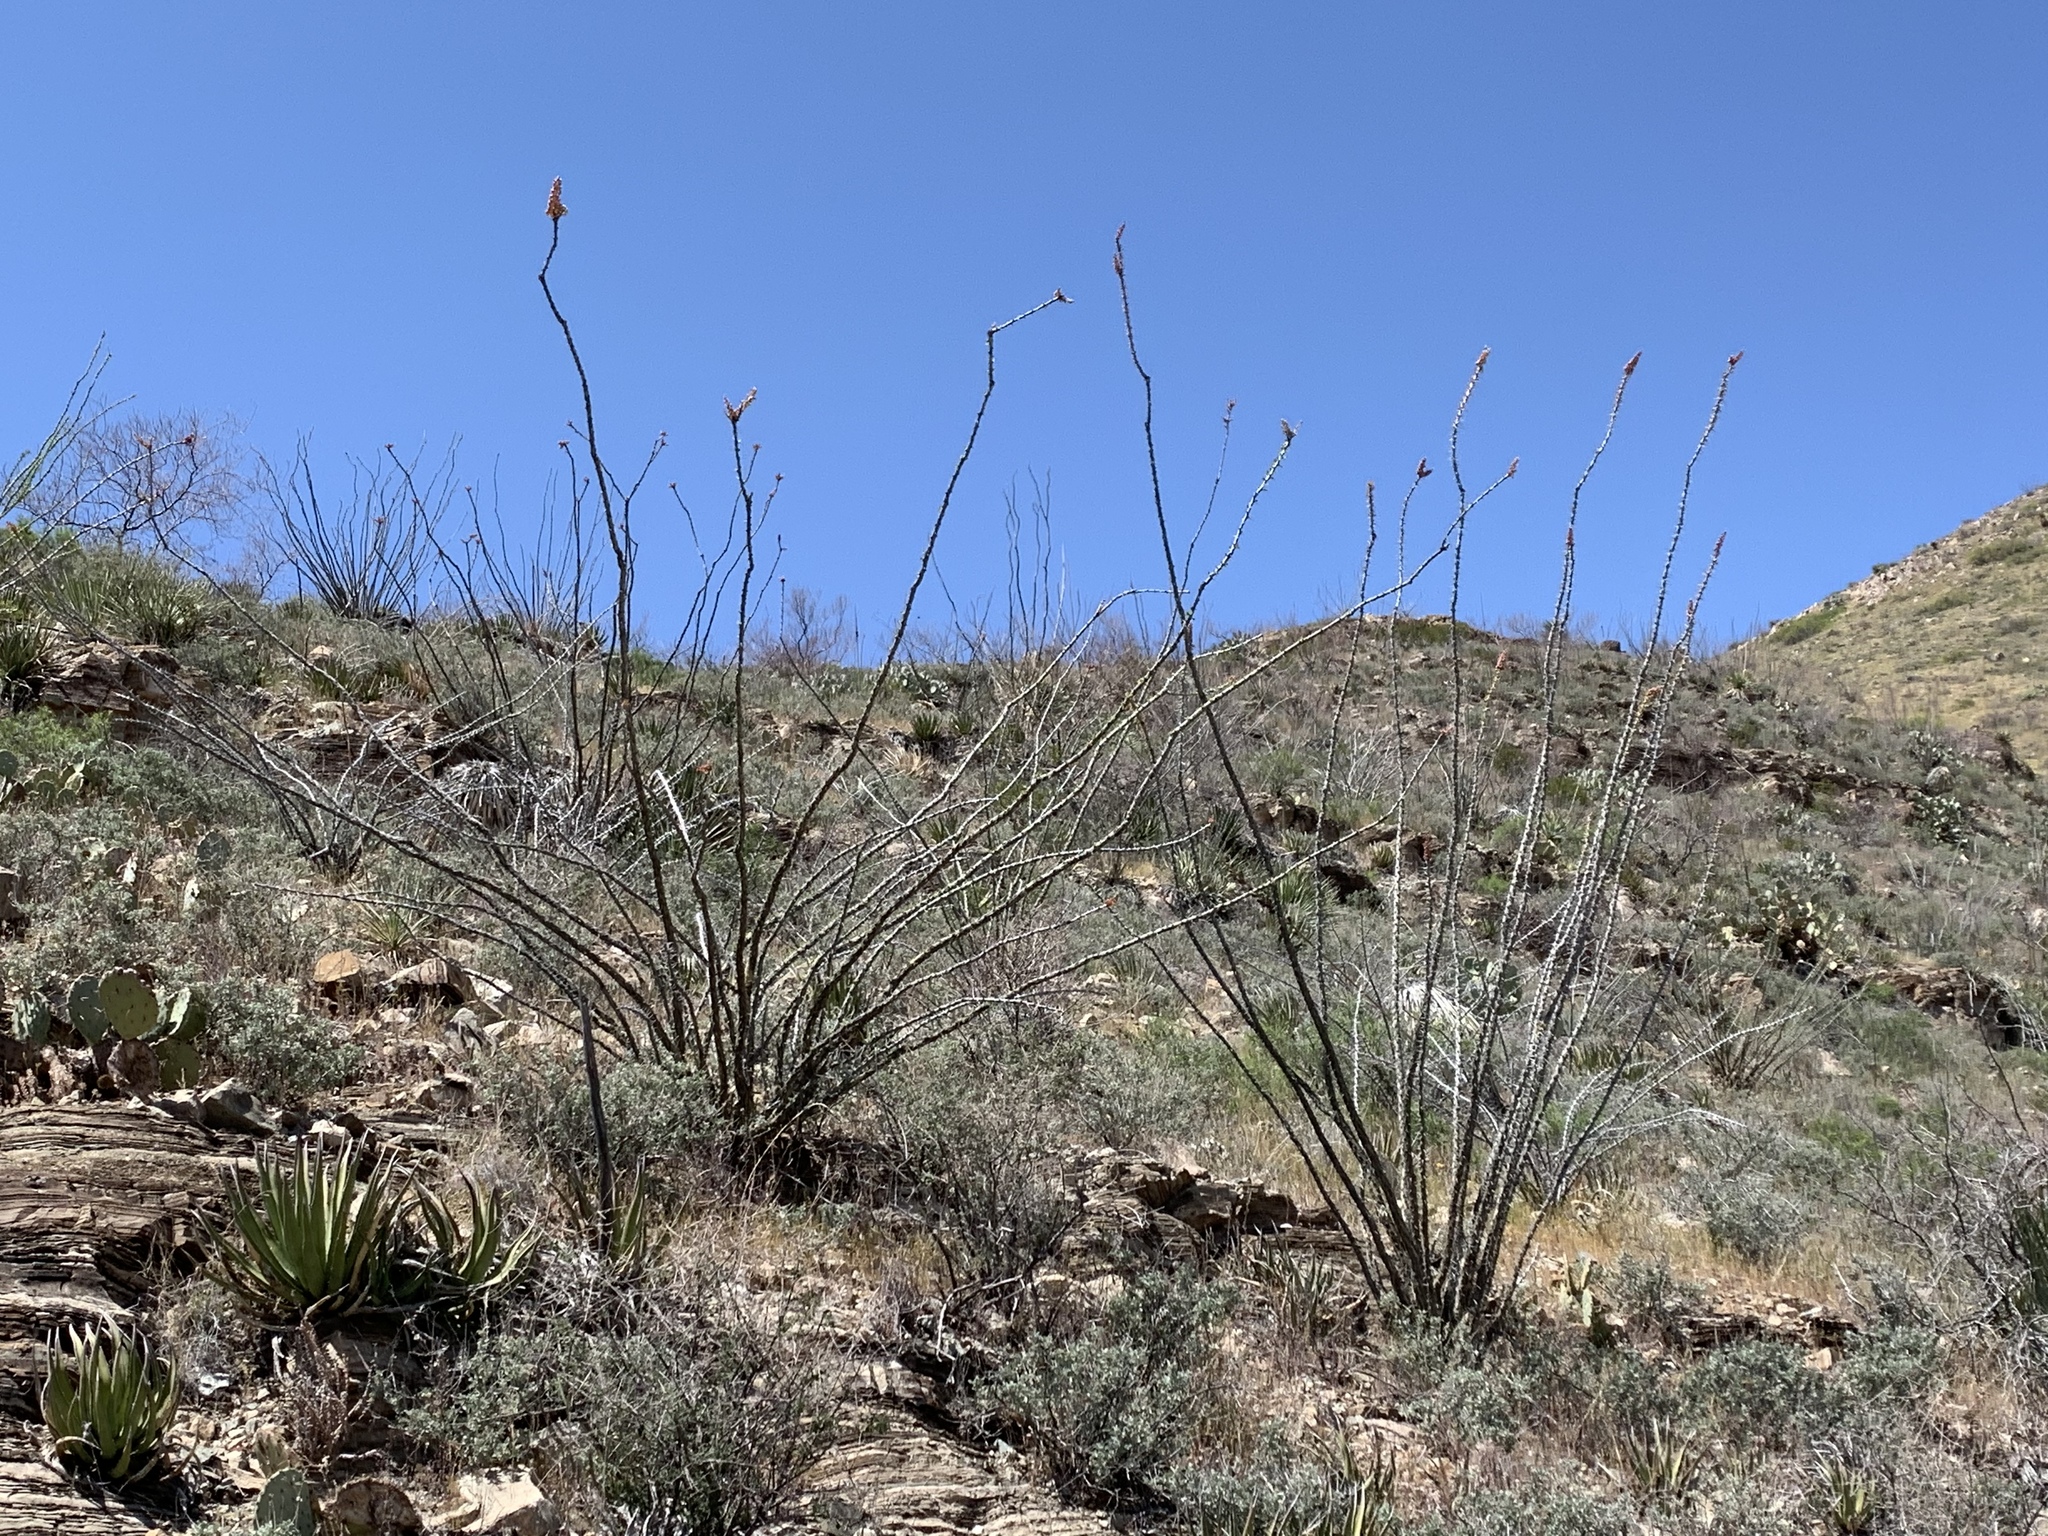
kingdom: Plantae
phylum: Tracheophyta
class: Magnoliopsida
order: Ericales
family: Fouquieriaceae
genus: Fouquieria
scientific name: Fouquieria splendens
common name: Vine-cactus
